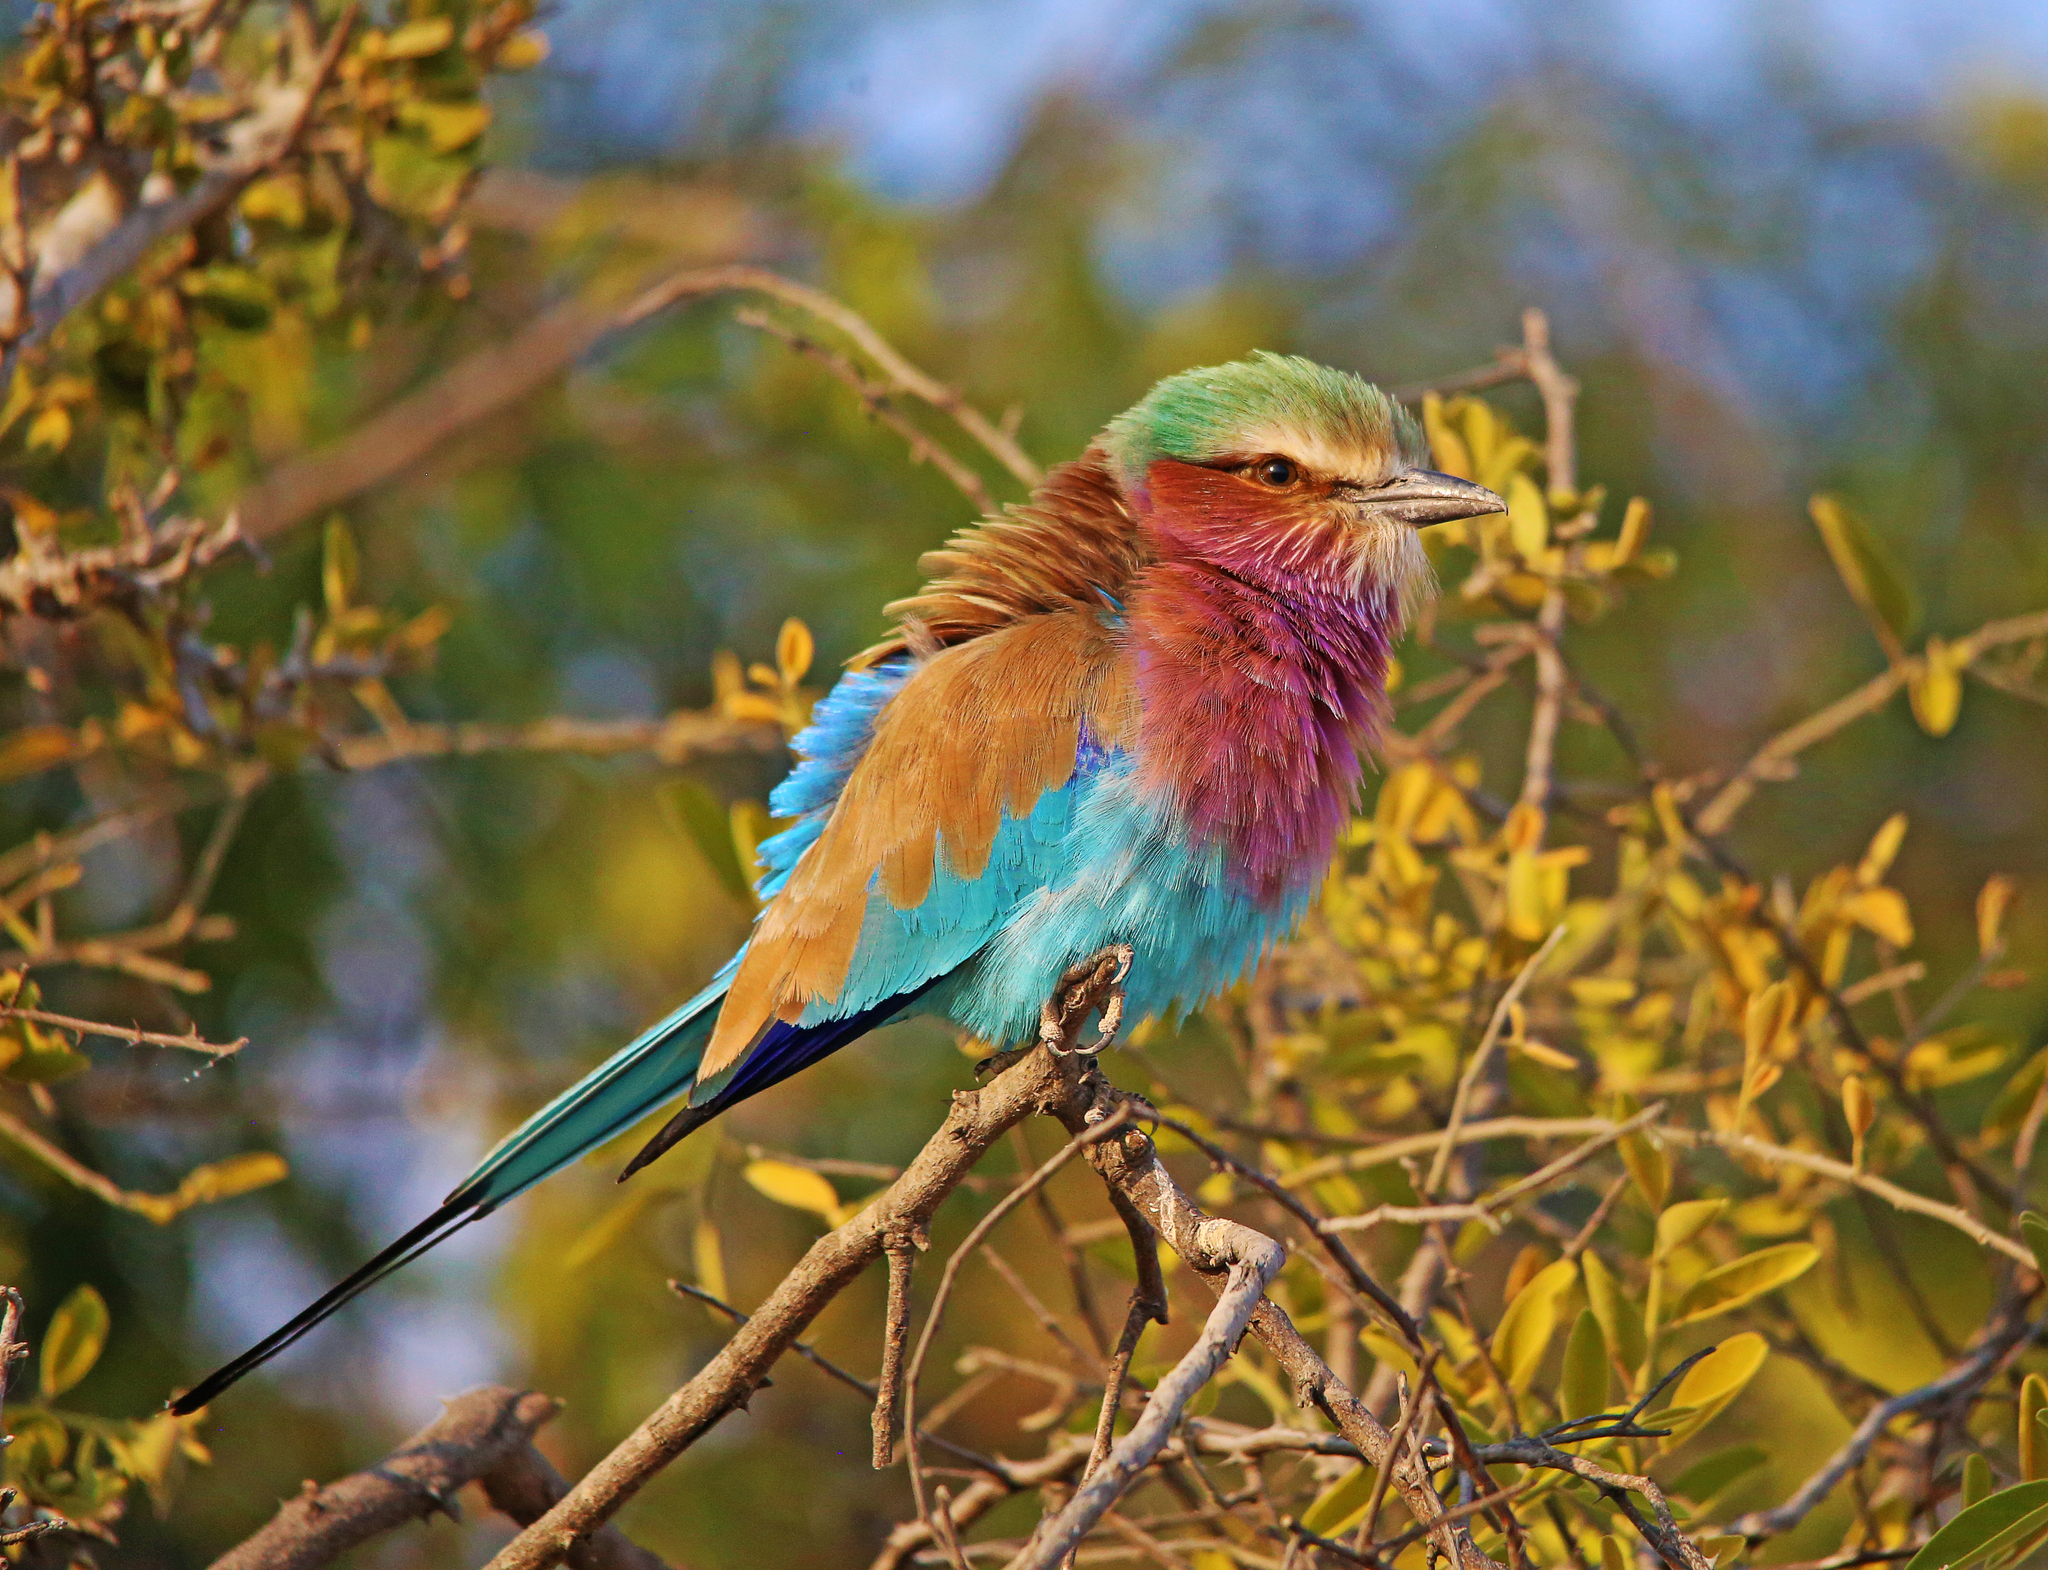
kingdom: Animalia
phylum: Chordata
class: Aves
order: Coraciiformes
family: Coraciidae
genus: Coracias
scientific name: Coracias caudatus
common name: Lilac-breasted roller
